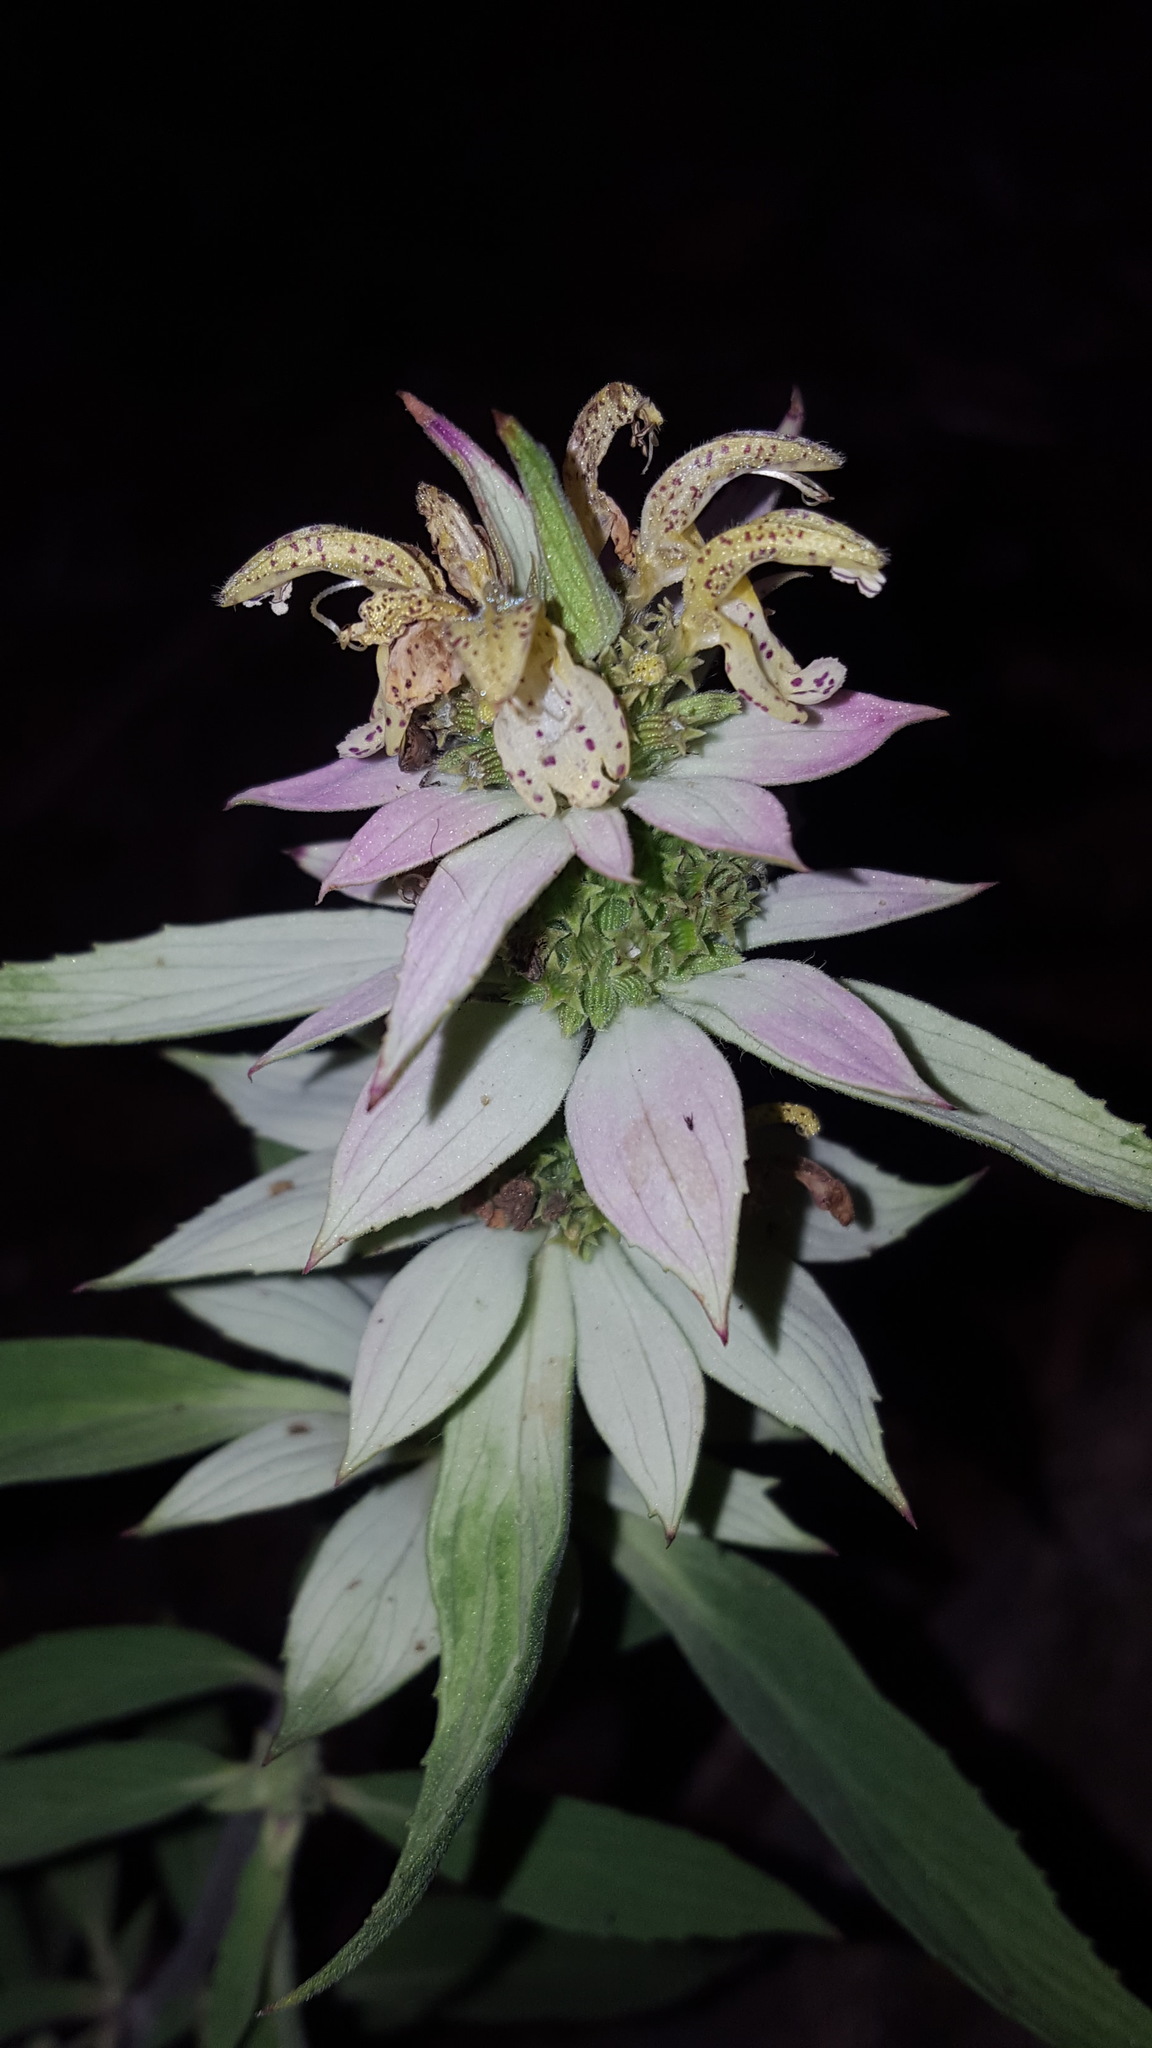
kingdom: Plantae
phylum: Tracheophyta
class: Magnoliopsida
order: Lamiales
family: Lamiaceae
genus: Monarda
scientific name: Monarda punctata
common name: Dotted monarda
